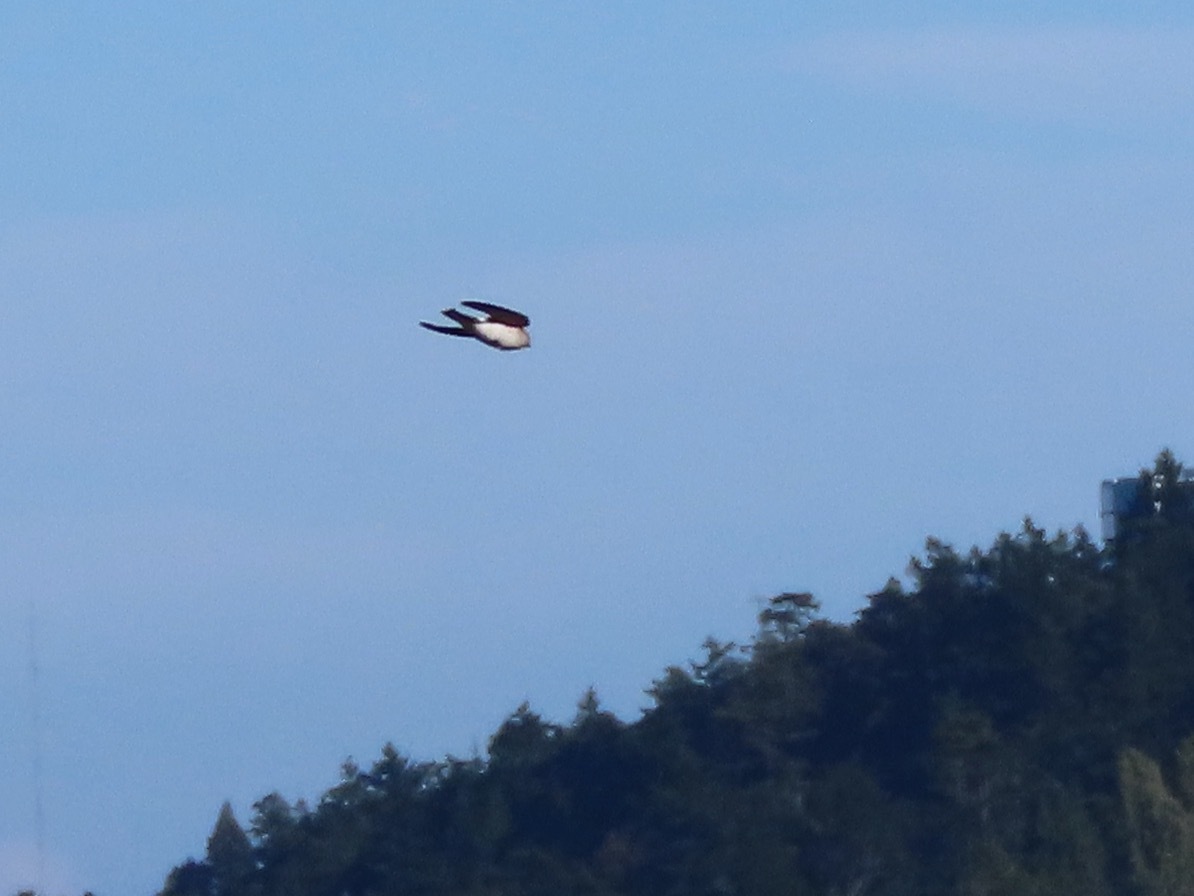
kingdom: Animalia
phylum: Chordata
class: Aves
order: Passeriformes
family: Hirundinidae
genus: Tachycineta
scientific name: Tachycineta thalassina
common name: Violet-green swallow
